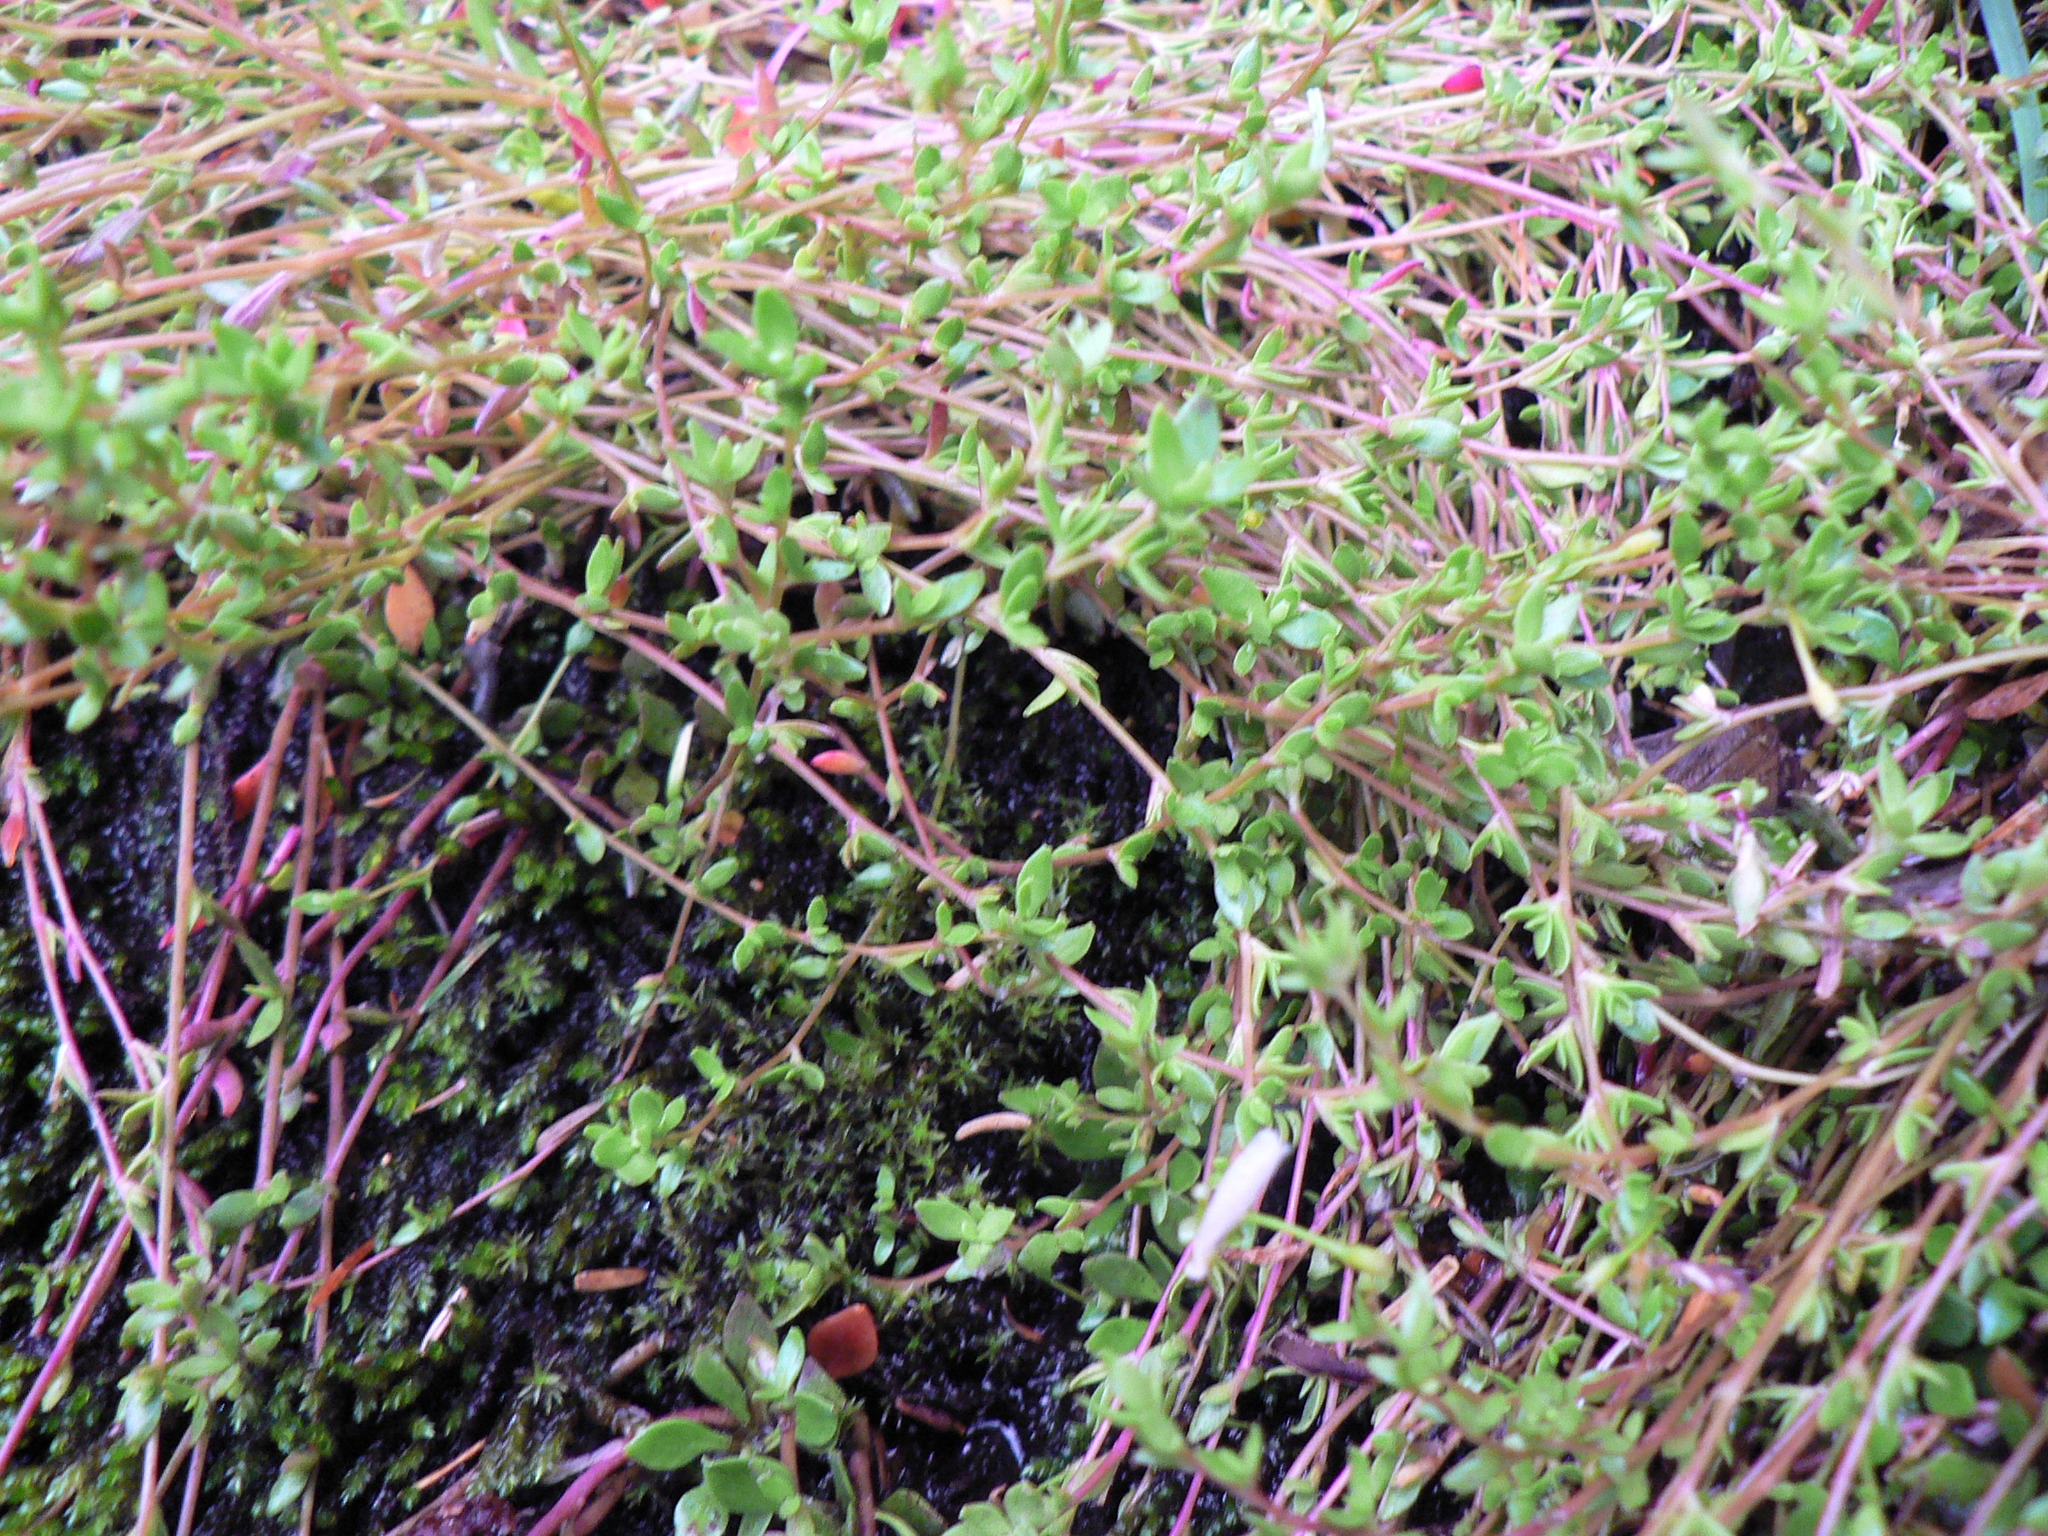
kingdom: Plantae
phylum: Tracheophyta
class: Magnoliopsida
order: Caryophyllales
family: Montiaceae
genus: Montia
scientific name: Montia parvifolia
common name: Small-leaved blinks
